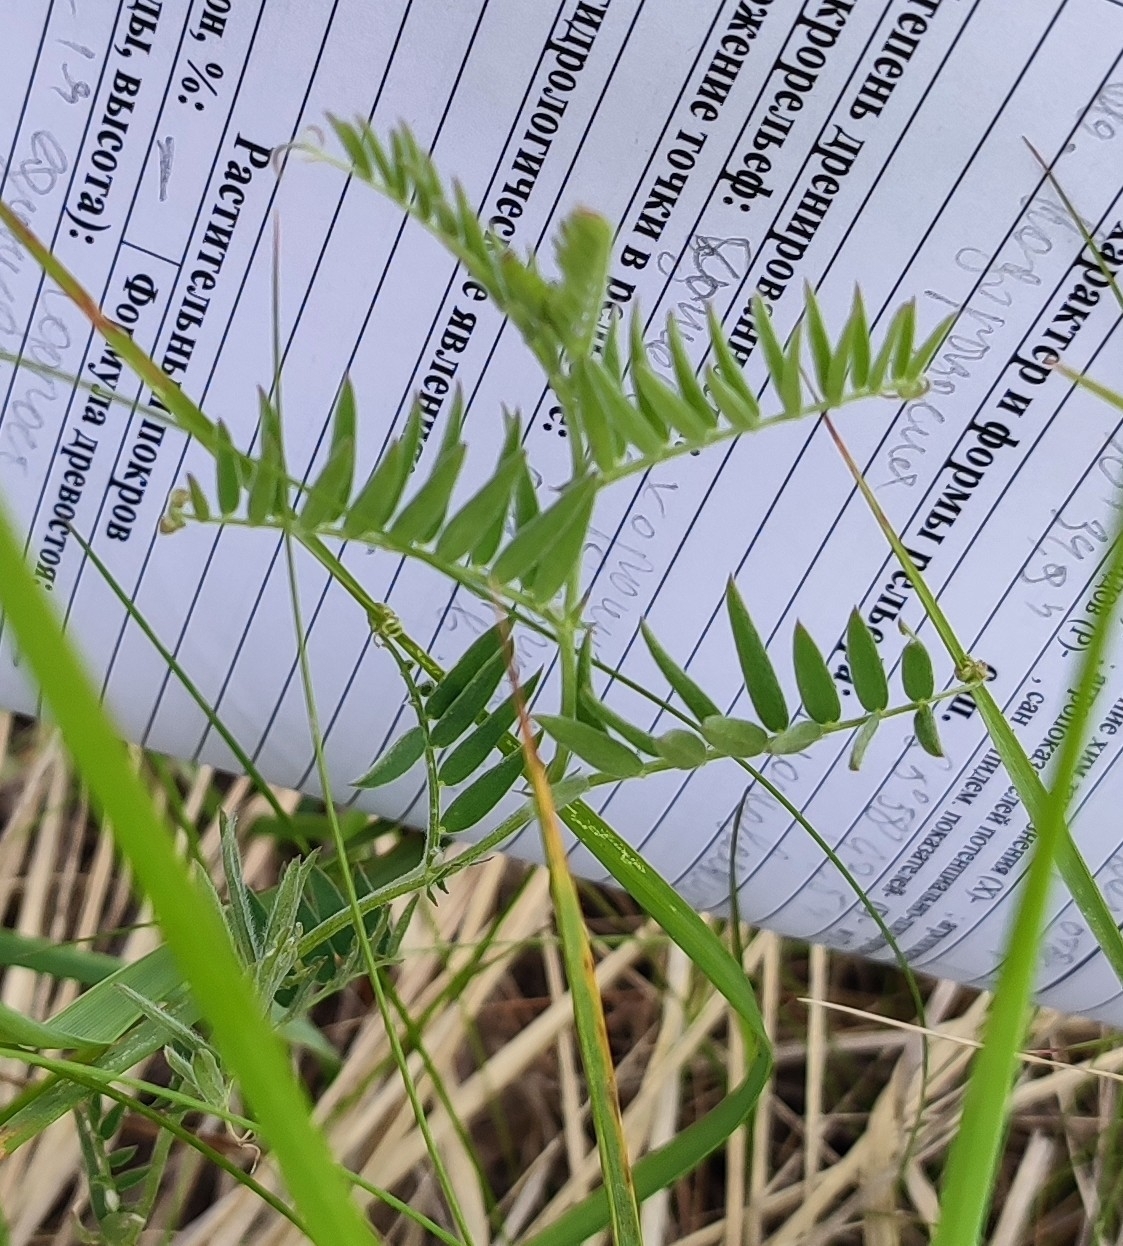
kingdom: Plantae
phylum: Tracheophyta
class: Magnoliopsida
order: Fabales
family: Fabaceae
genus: Vicia
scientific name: Vicia cracca
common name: Bird vetch
